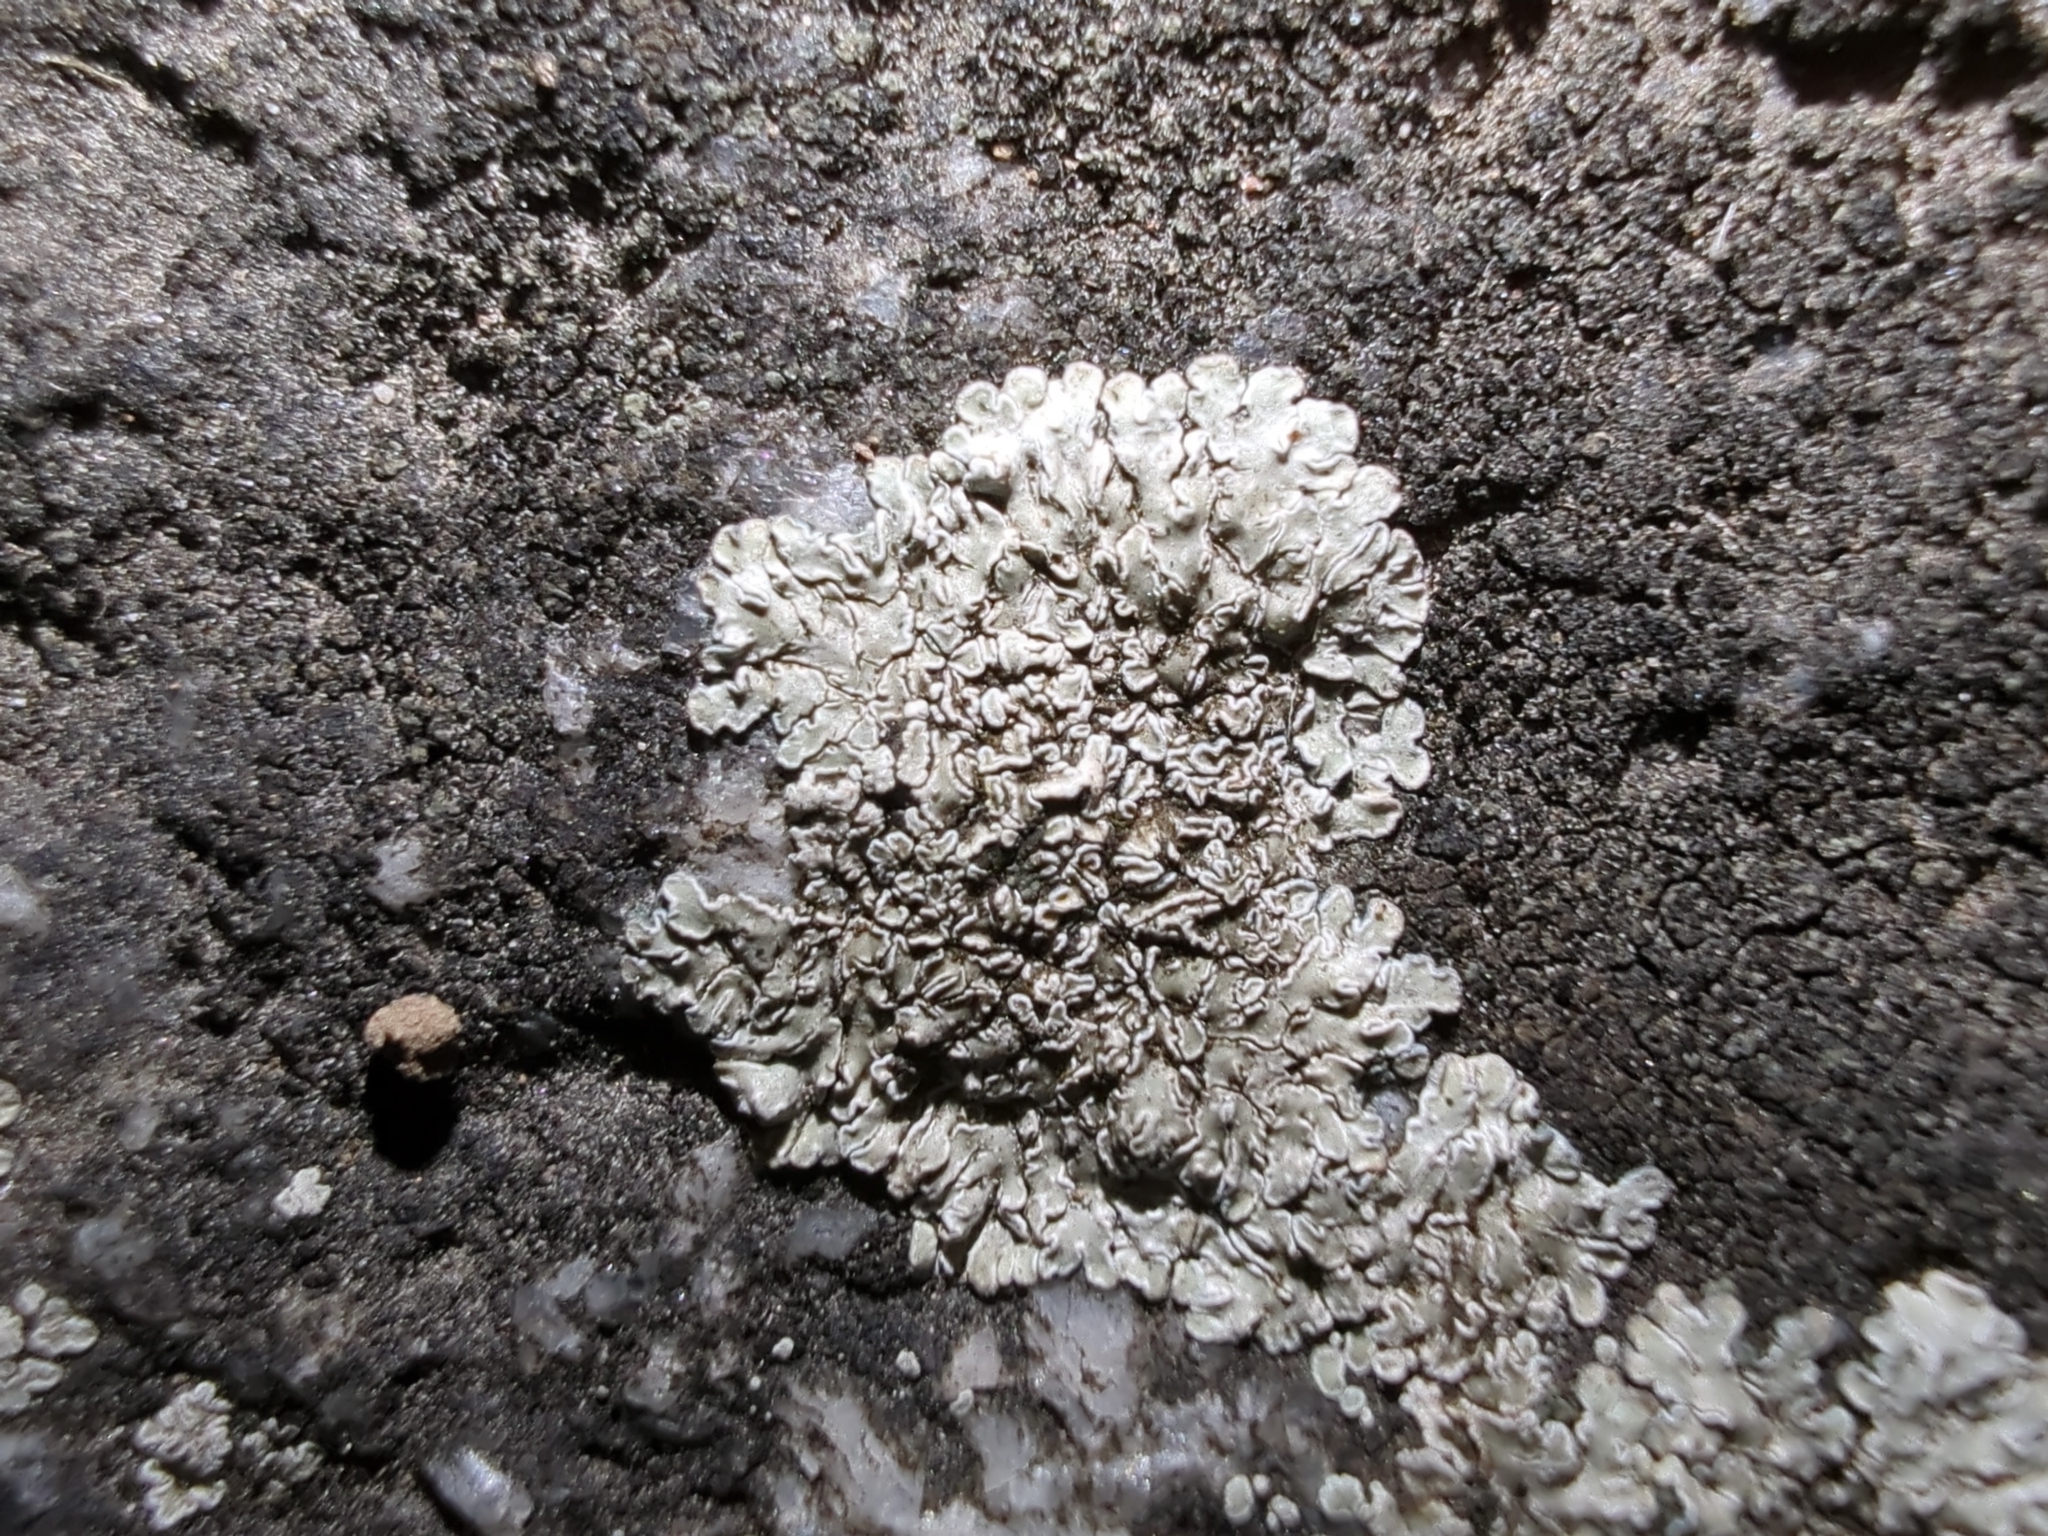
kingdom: Fungi
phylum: Ascomycota
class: Lecanoromycetes
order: Lecanorales
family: Lecanoraceae
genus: Protoparmeliopsis
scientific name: Protoparmeliopsis muralis
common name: Stonewall rim lichen
